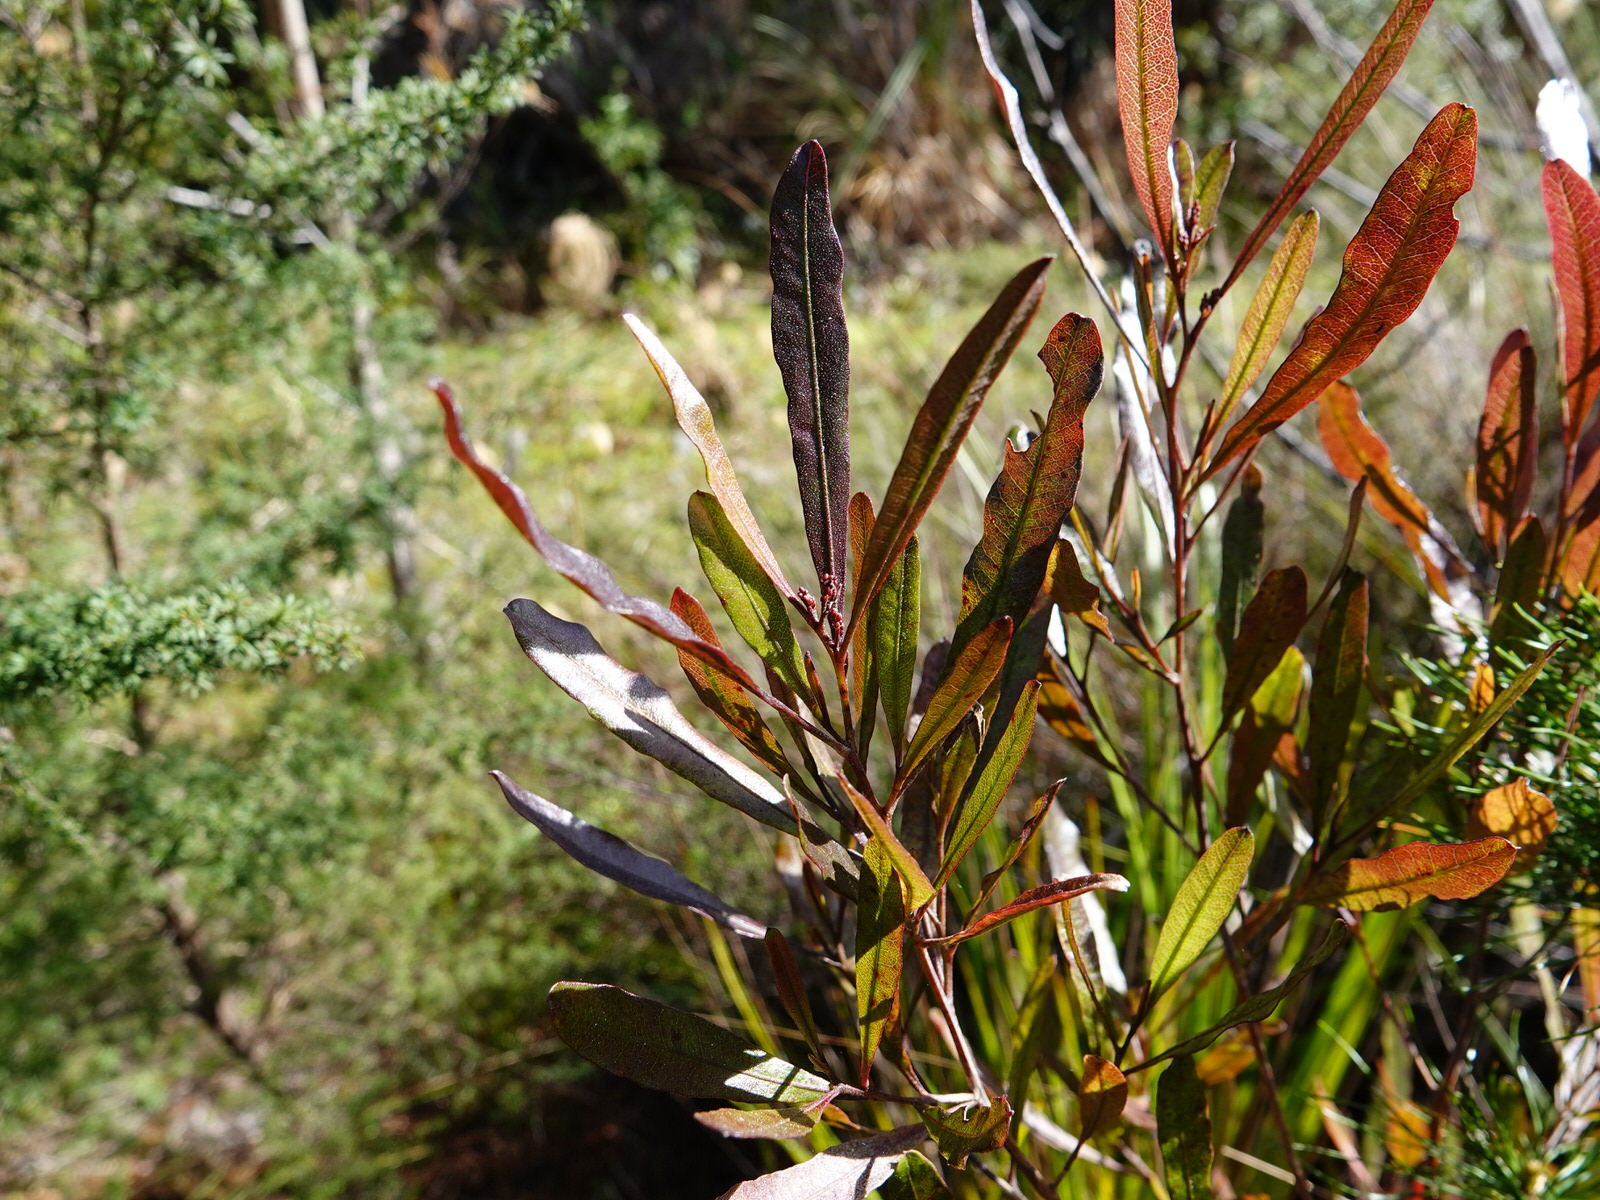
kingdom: Plantae
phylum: Tracheophyta
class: Magnoliopsida
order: Sapindales
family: Sapindaceae
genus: Dodonaea
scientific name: Dodonaea viscosa
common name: Hopbush
